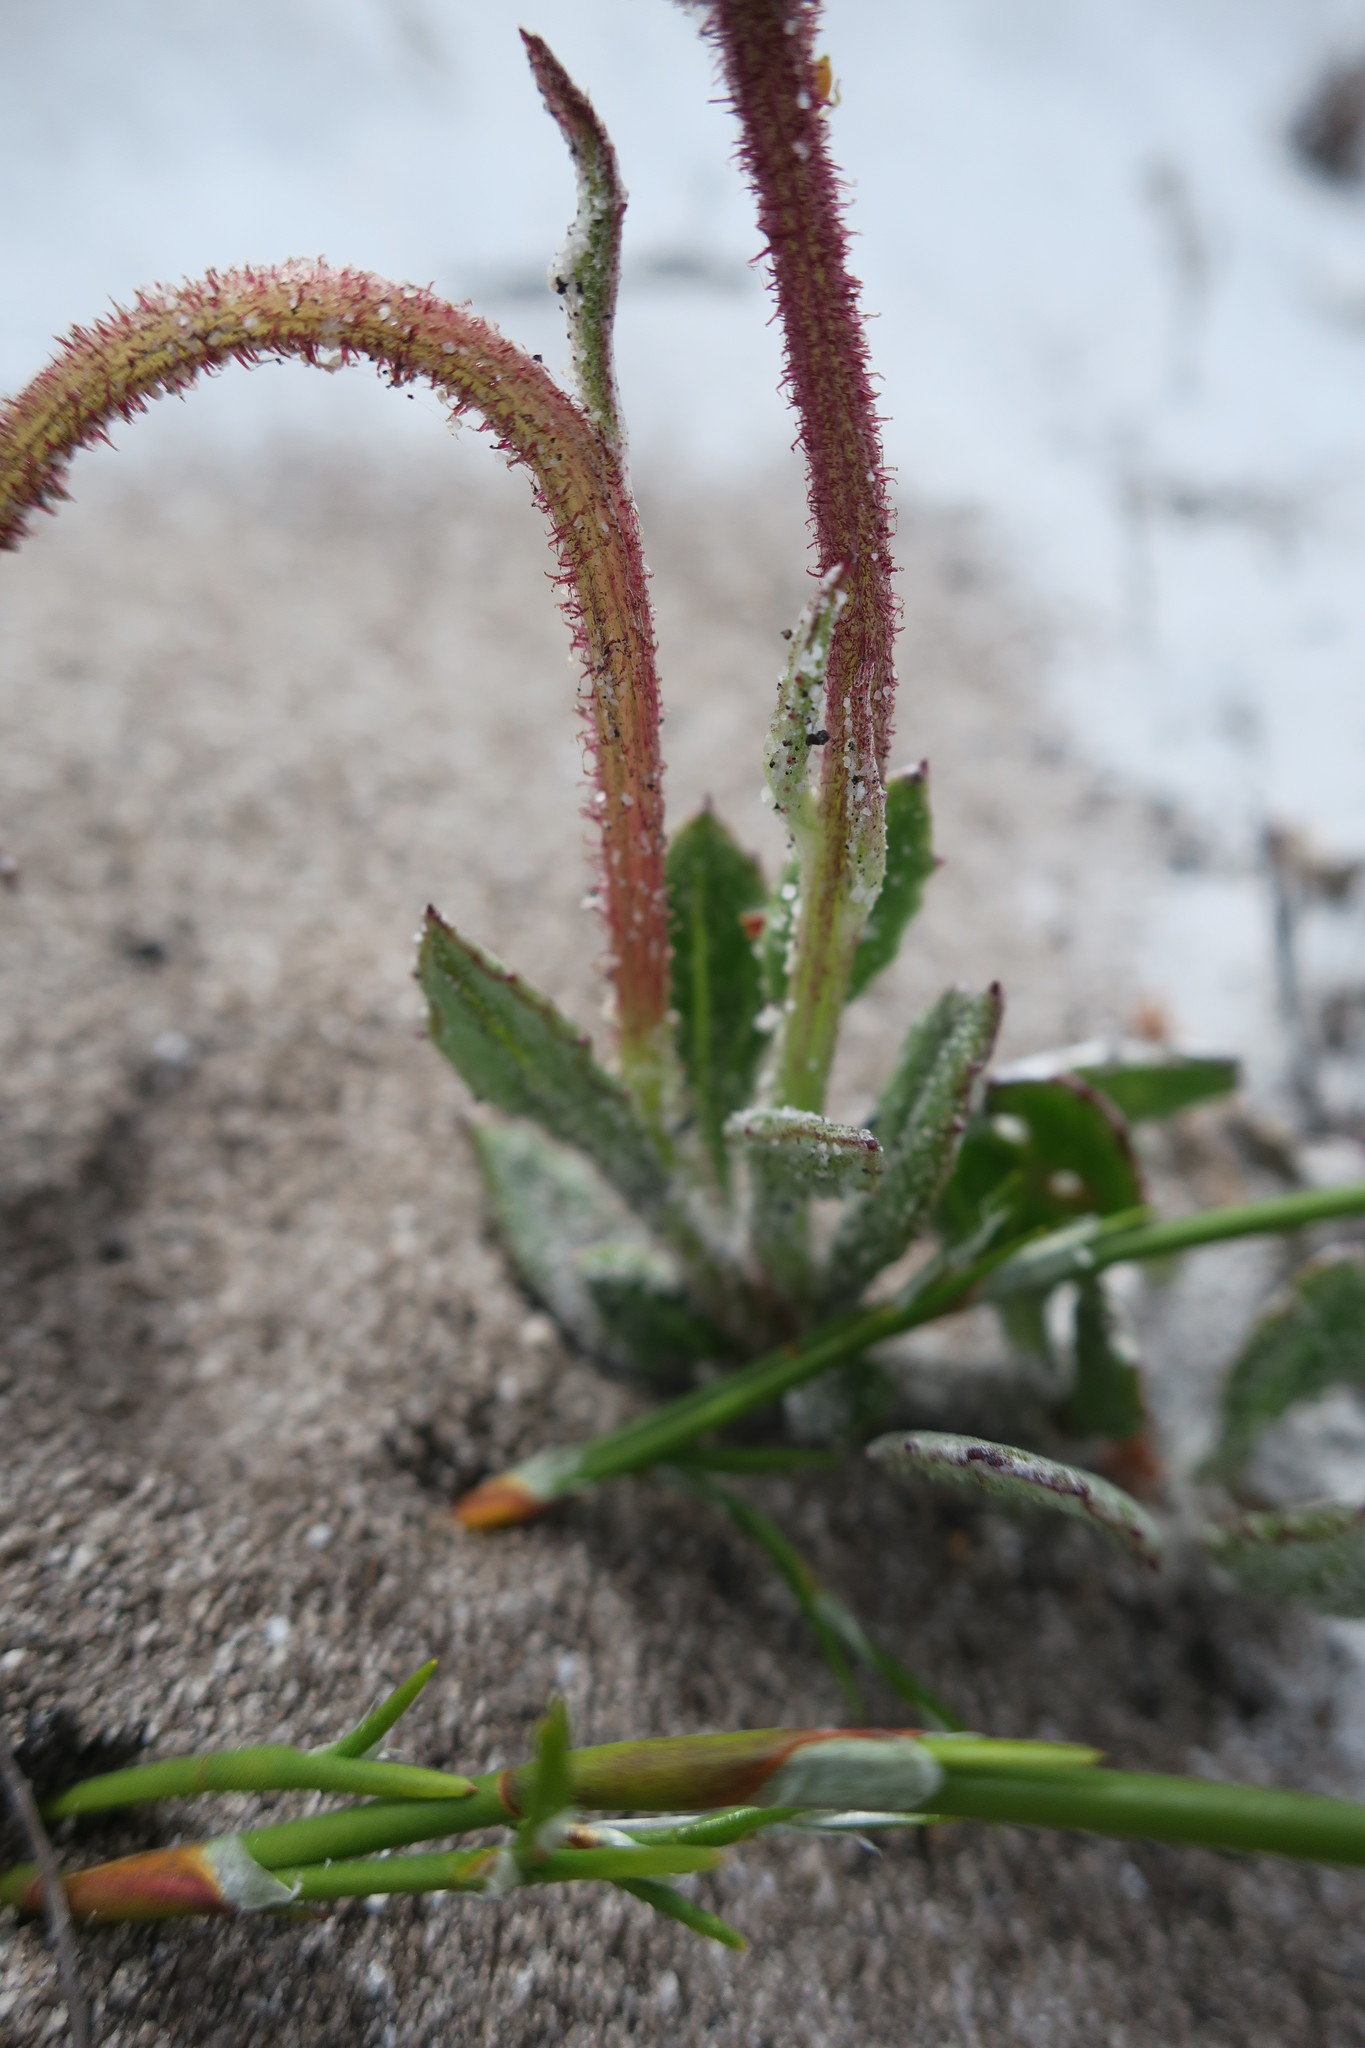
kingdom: Plantae
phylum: Tracheophyta
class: Magnoliopsida
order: Asterales
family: Asteraceae
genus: Arctotis
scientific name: Arctotis angustifolia
